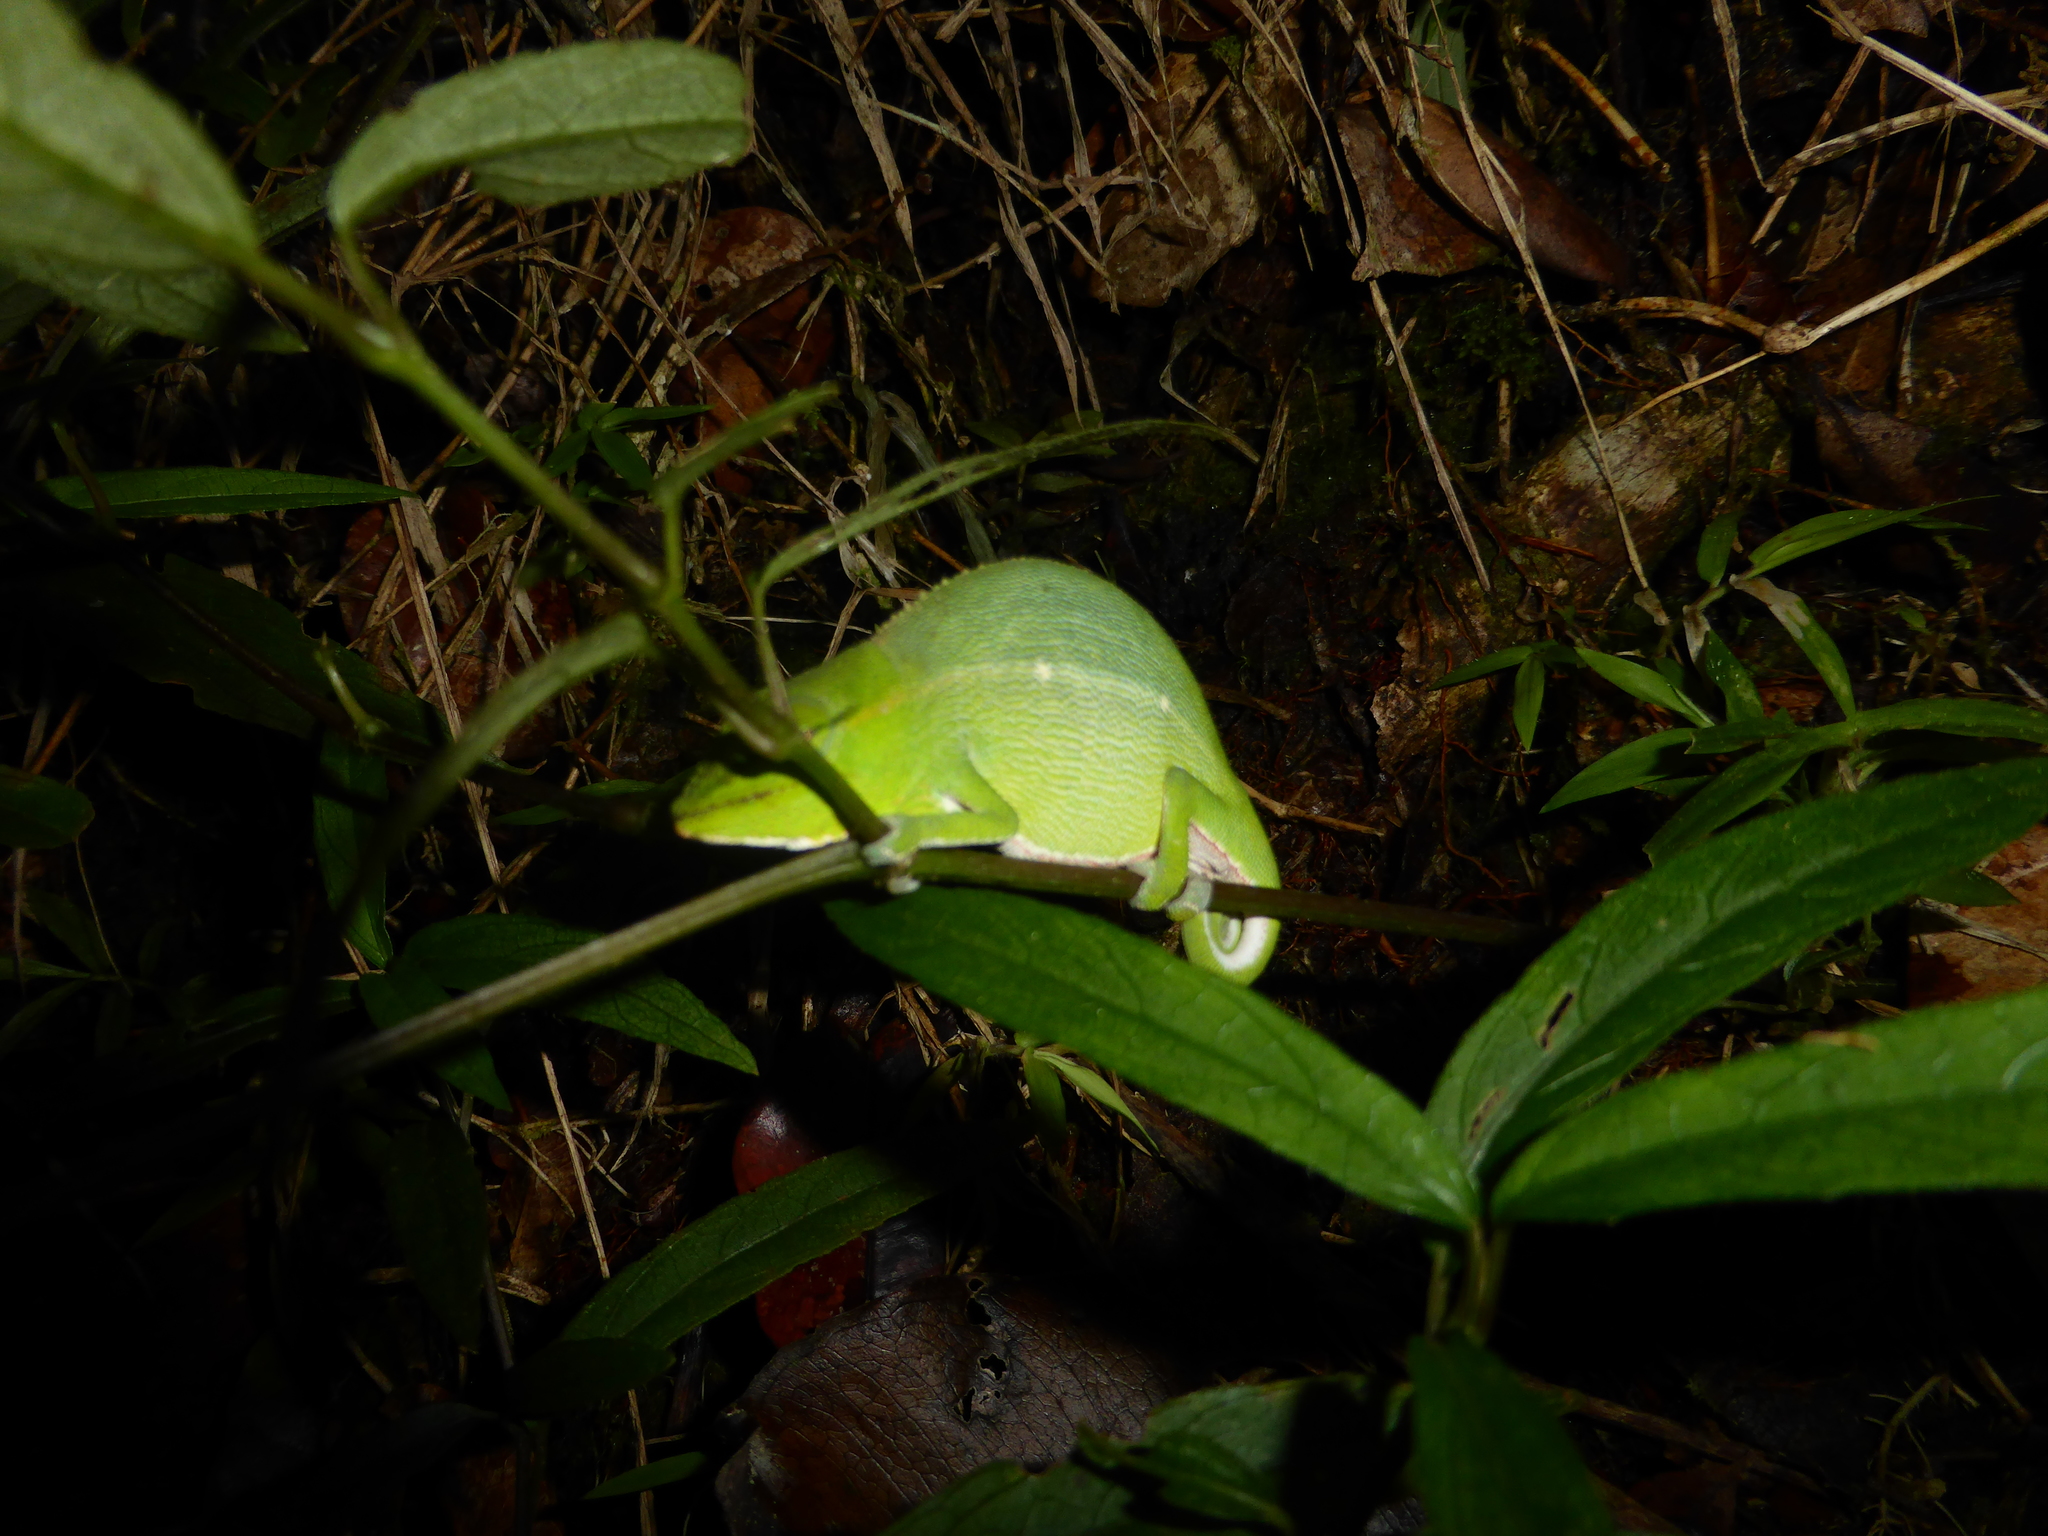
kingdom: Animalia
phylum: Chordata
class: Squamata
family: Chamaeleonidae
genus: Calumma
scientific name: Calumma gastrotaenia
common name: Short-nosed chameleon
